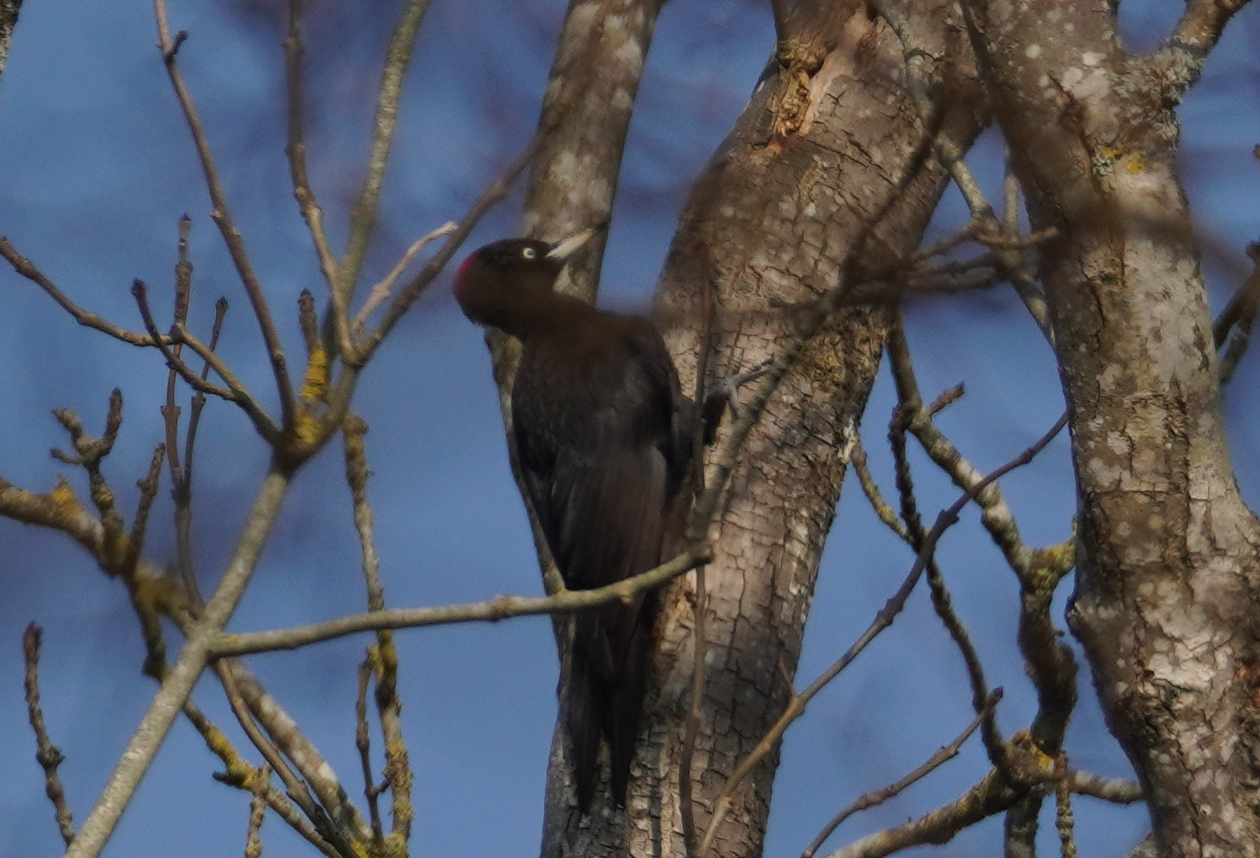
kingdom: Animalia
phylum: Chordata
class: Aves
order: Piciformes
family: Picidae
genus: Dryocopus
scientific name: Dryocopus martius
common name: Black woodpecker
